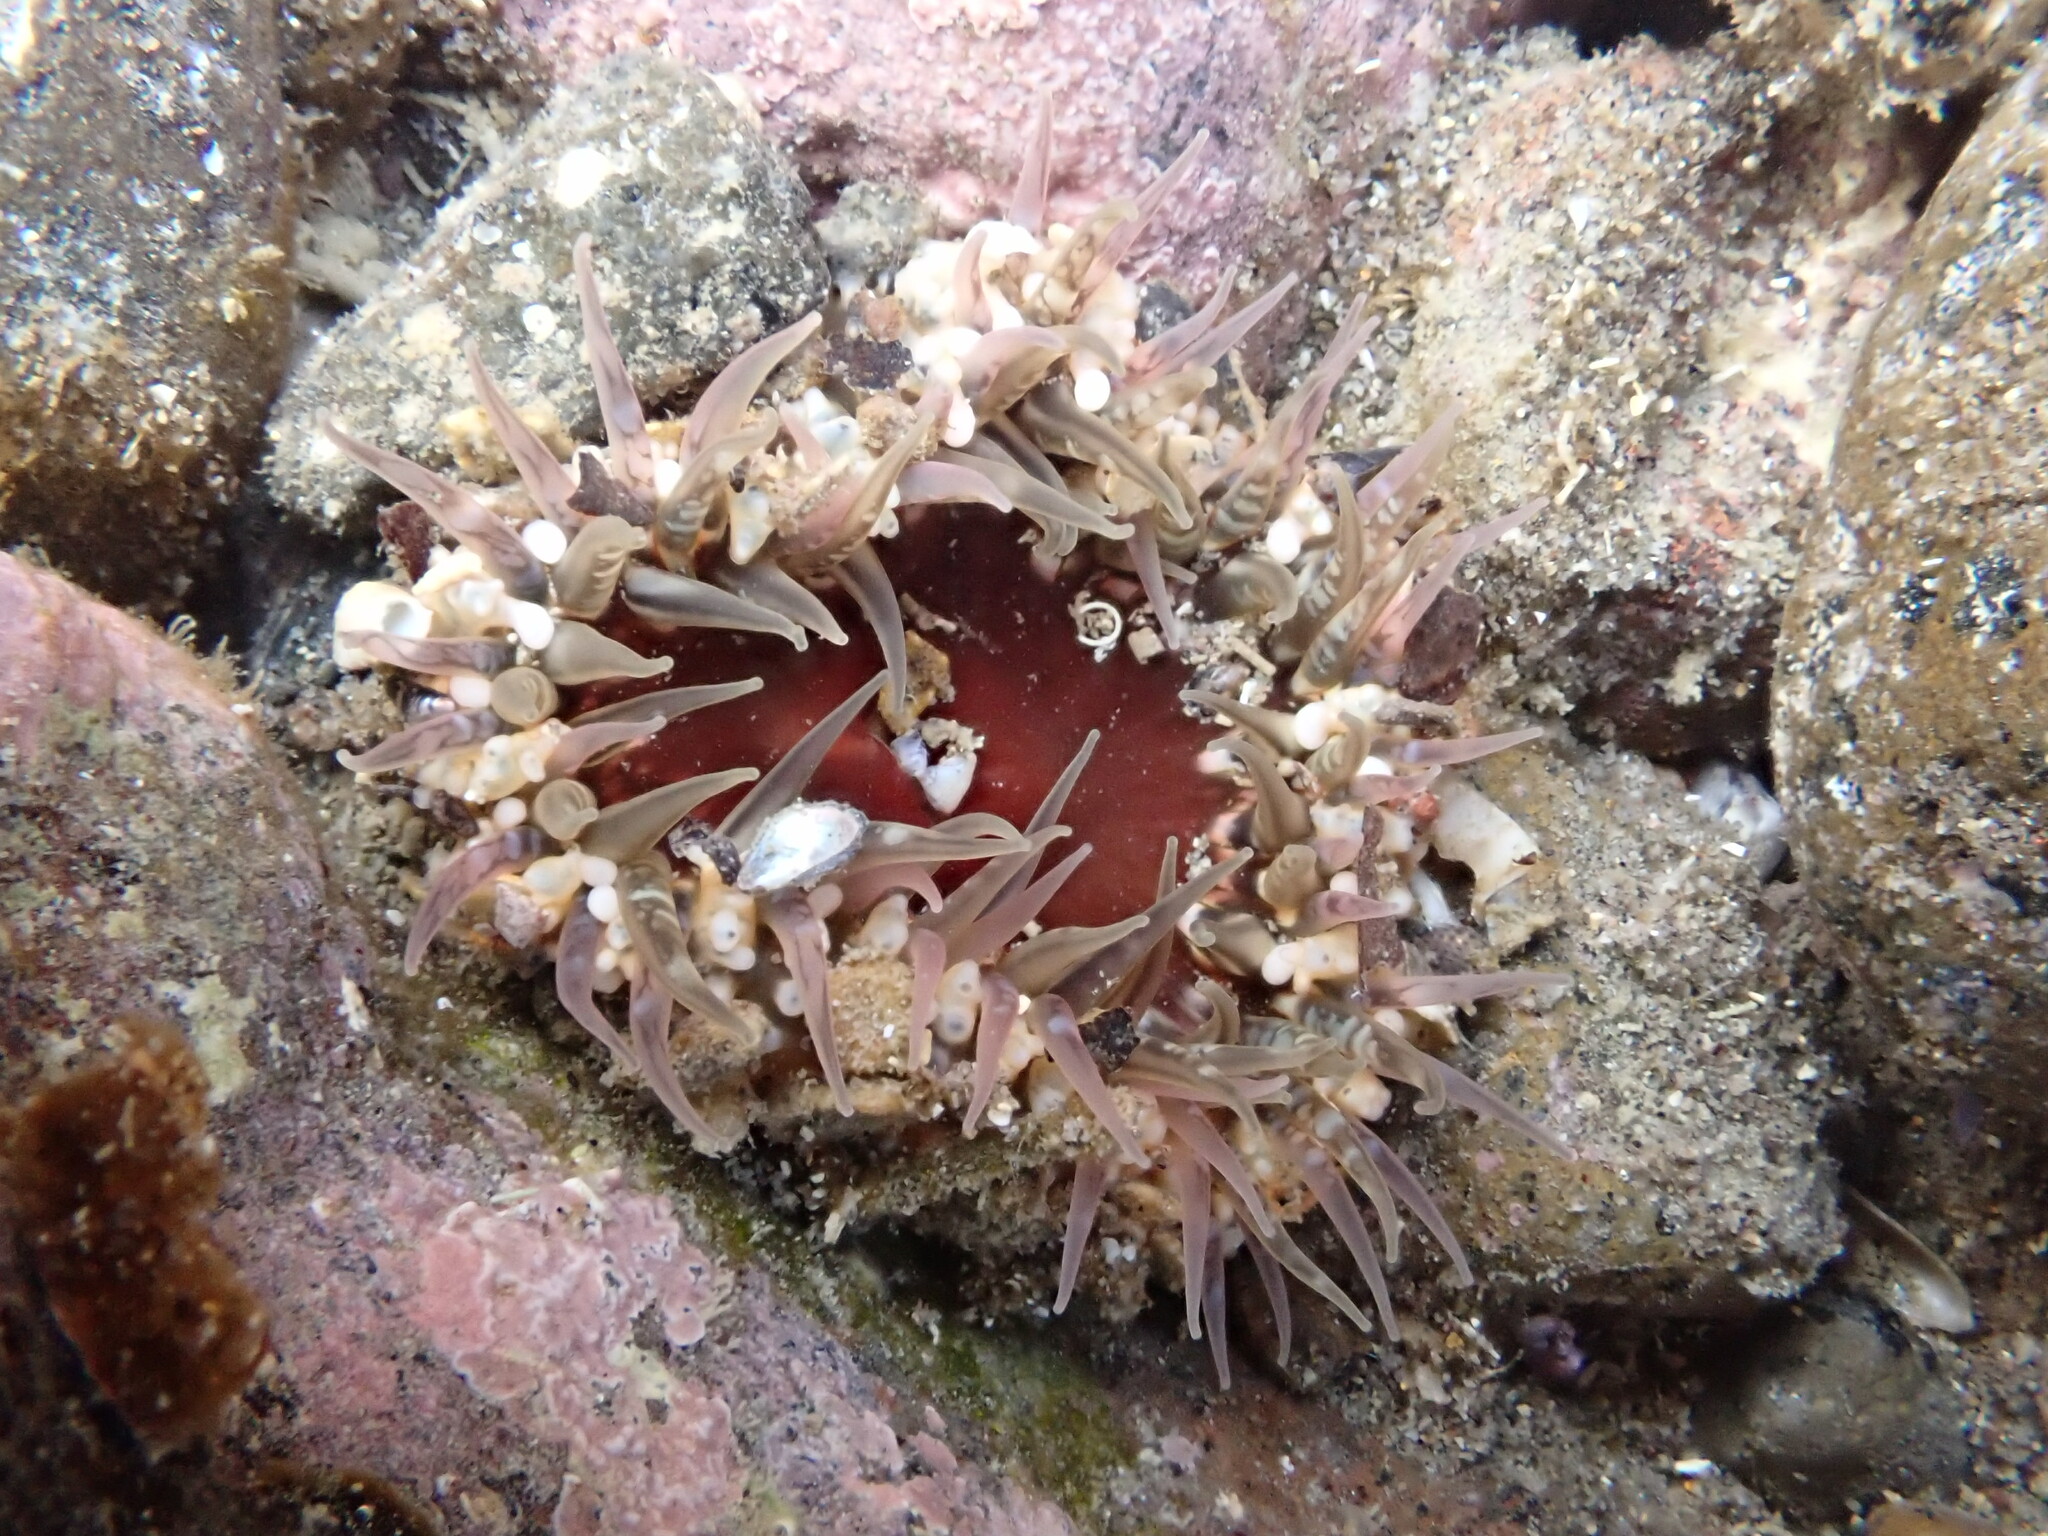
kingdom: Animalia
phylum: Cnidaria
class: Anthozoa
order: Actiniaria
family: Actiniidae
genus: Oulactis
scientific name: Oulactis muscosa
